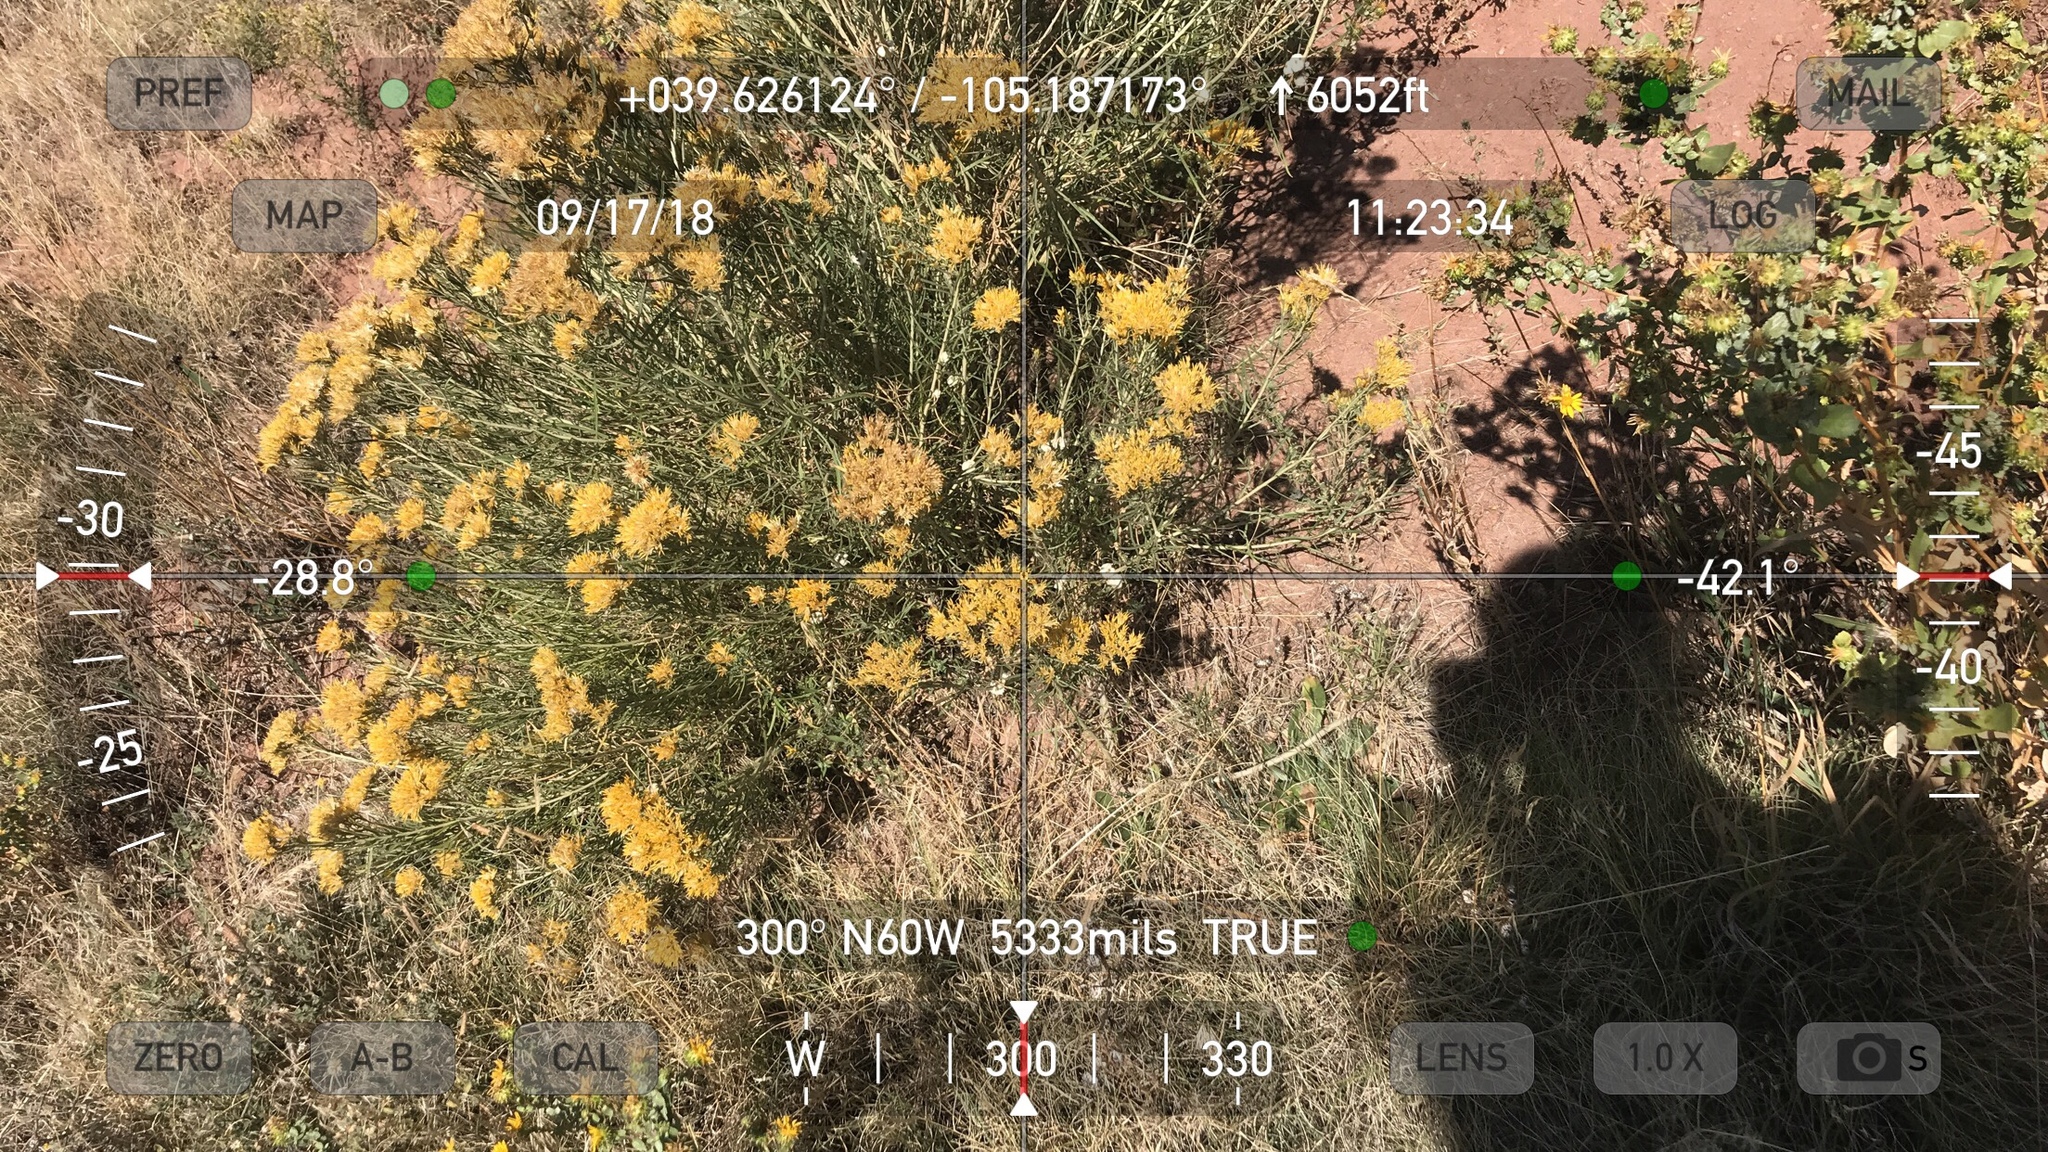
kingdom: Plantae
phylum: Tracheophyta
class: Magnoliopsida
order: Asterales
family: Asteraceae
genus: Grindelia
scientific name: Grindelia hirsutula
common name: Hairy gumweed
